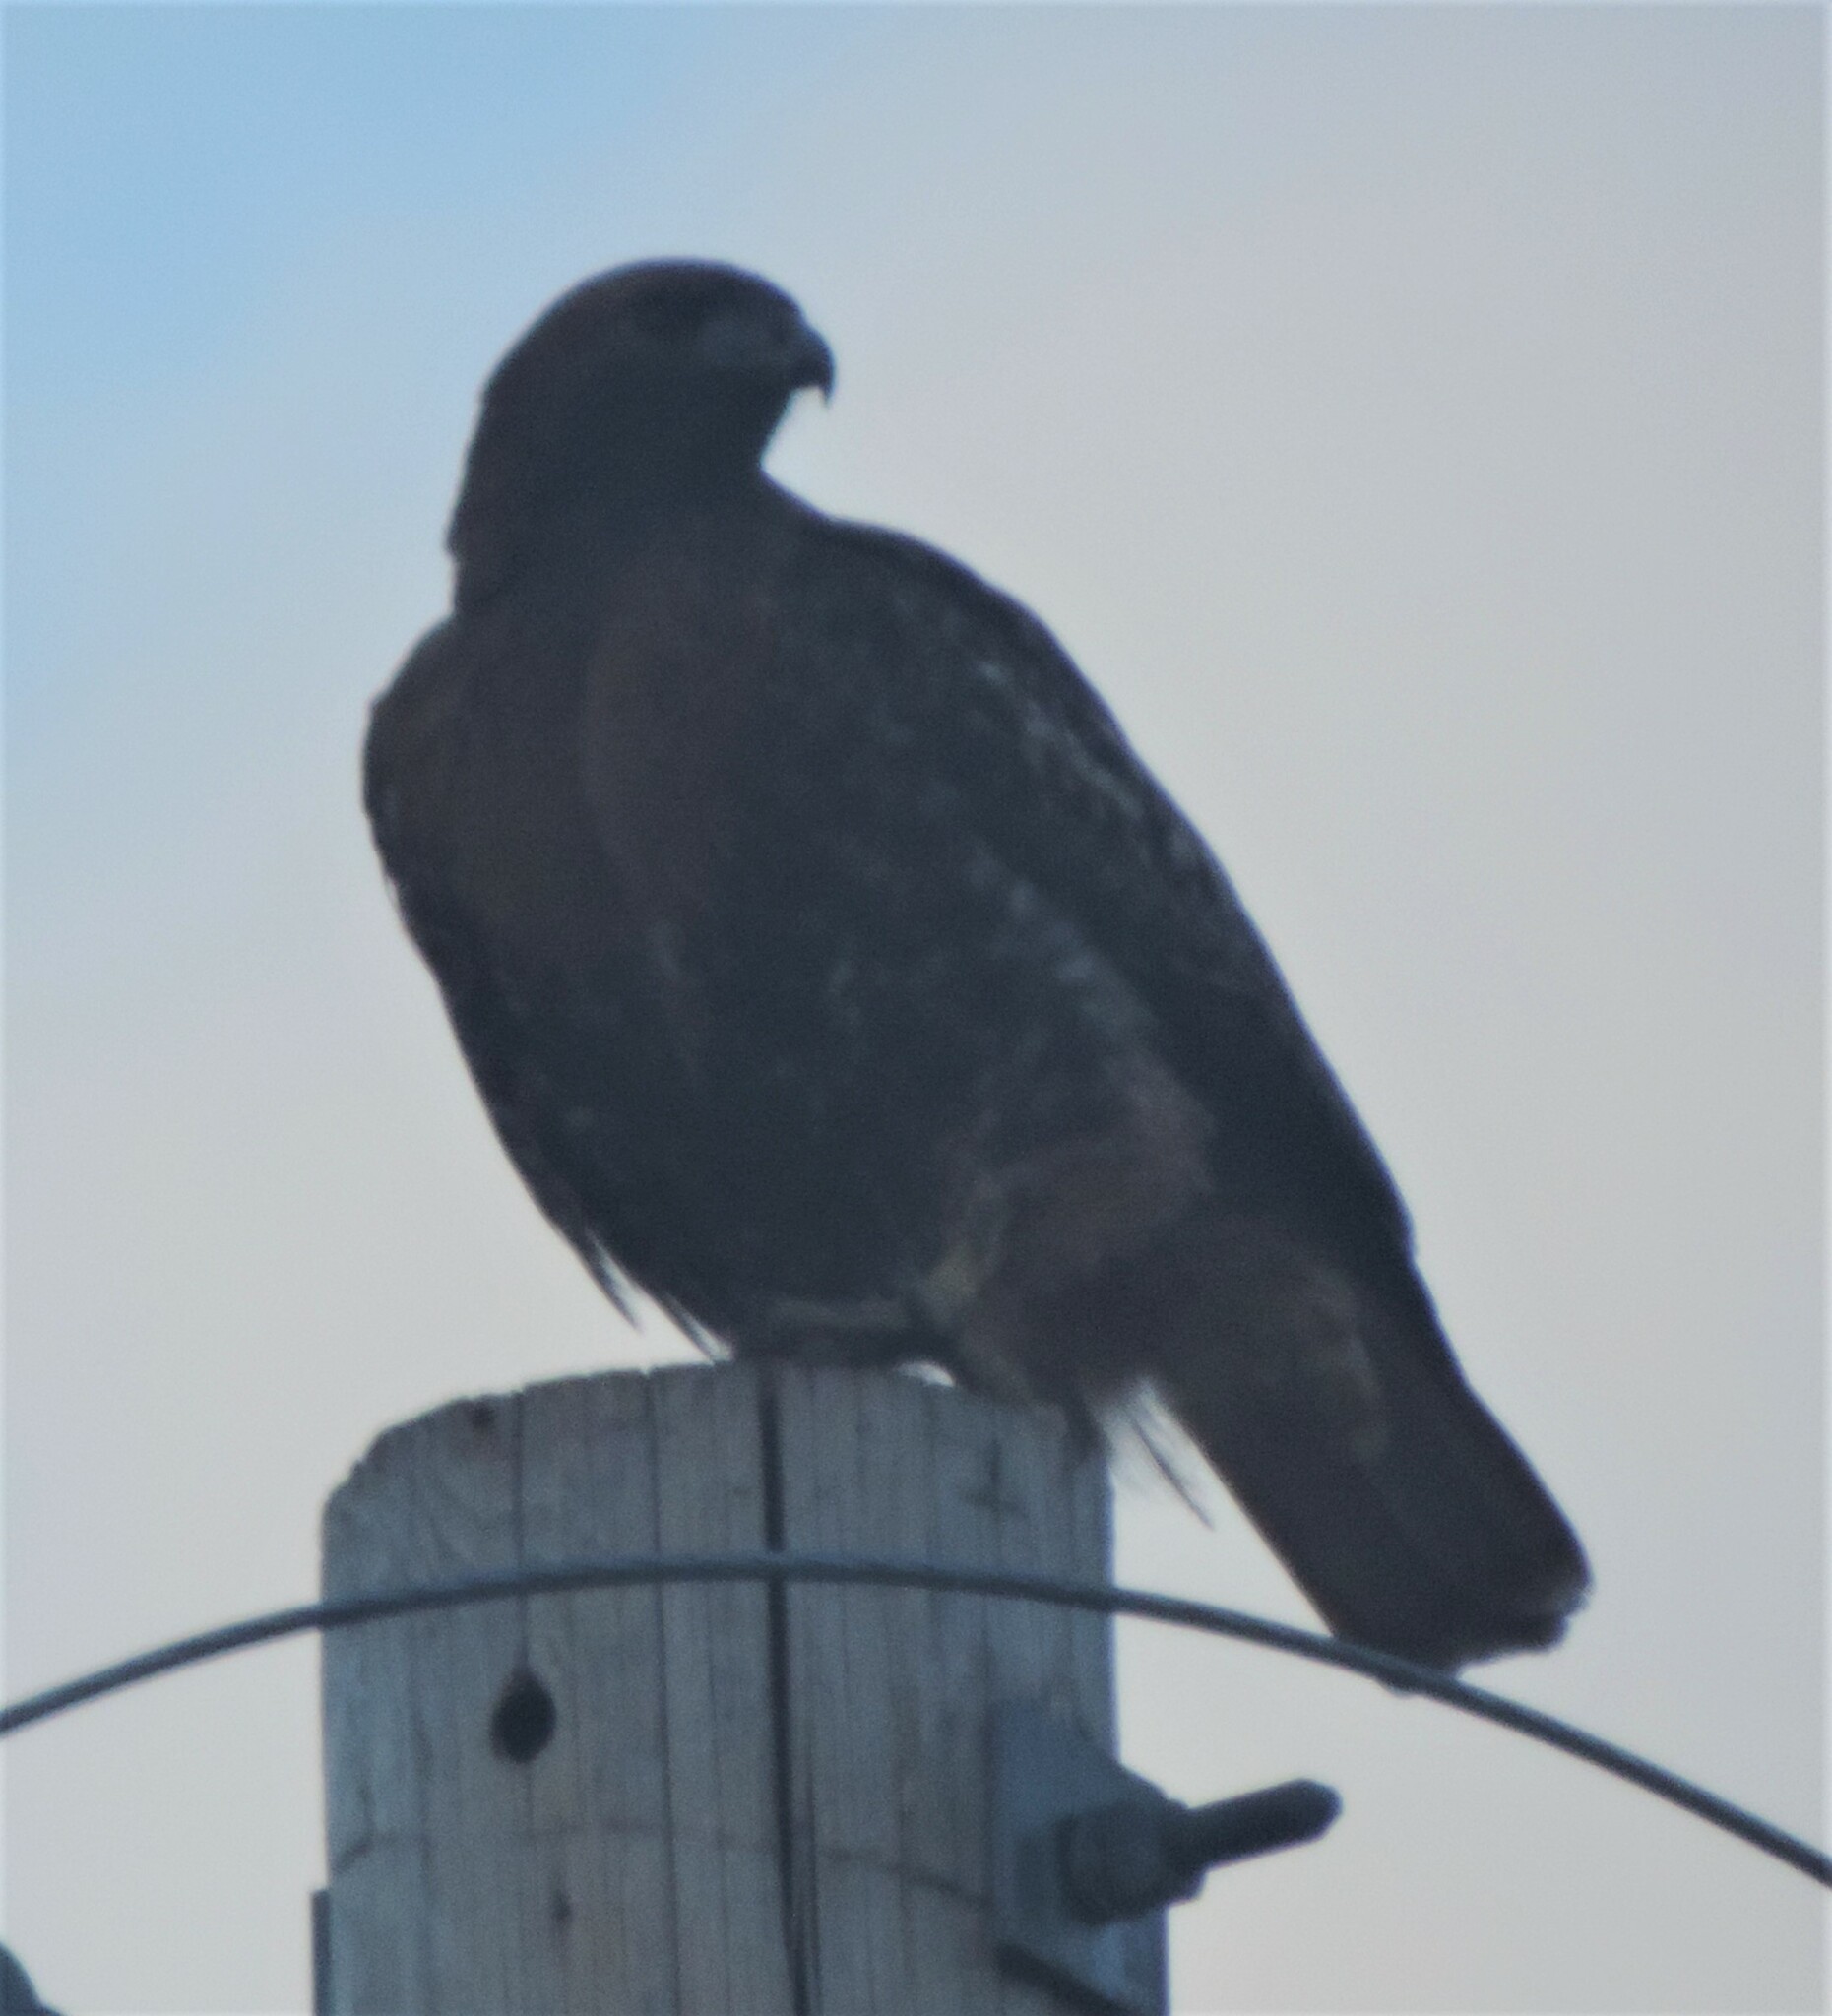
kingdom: Animalia
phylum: Chordata
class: Aves
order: Accipitriformes
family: Accipitridae
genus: Buteo
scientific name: Buteo jamaicensis
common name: Red-tailed hawk
